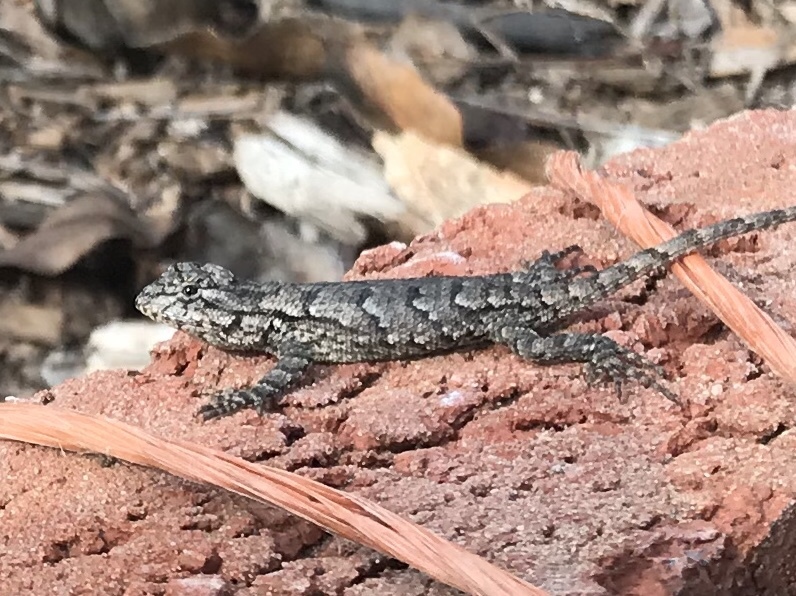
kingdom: Animalia
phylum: Chordata
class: Squamata
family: Phrynosomatidae
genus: Sceloporus
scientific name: Sceloporus undulatus
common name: Eastern fence lizard
